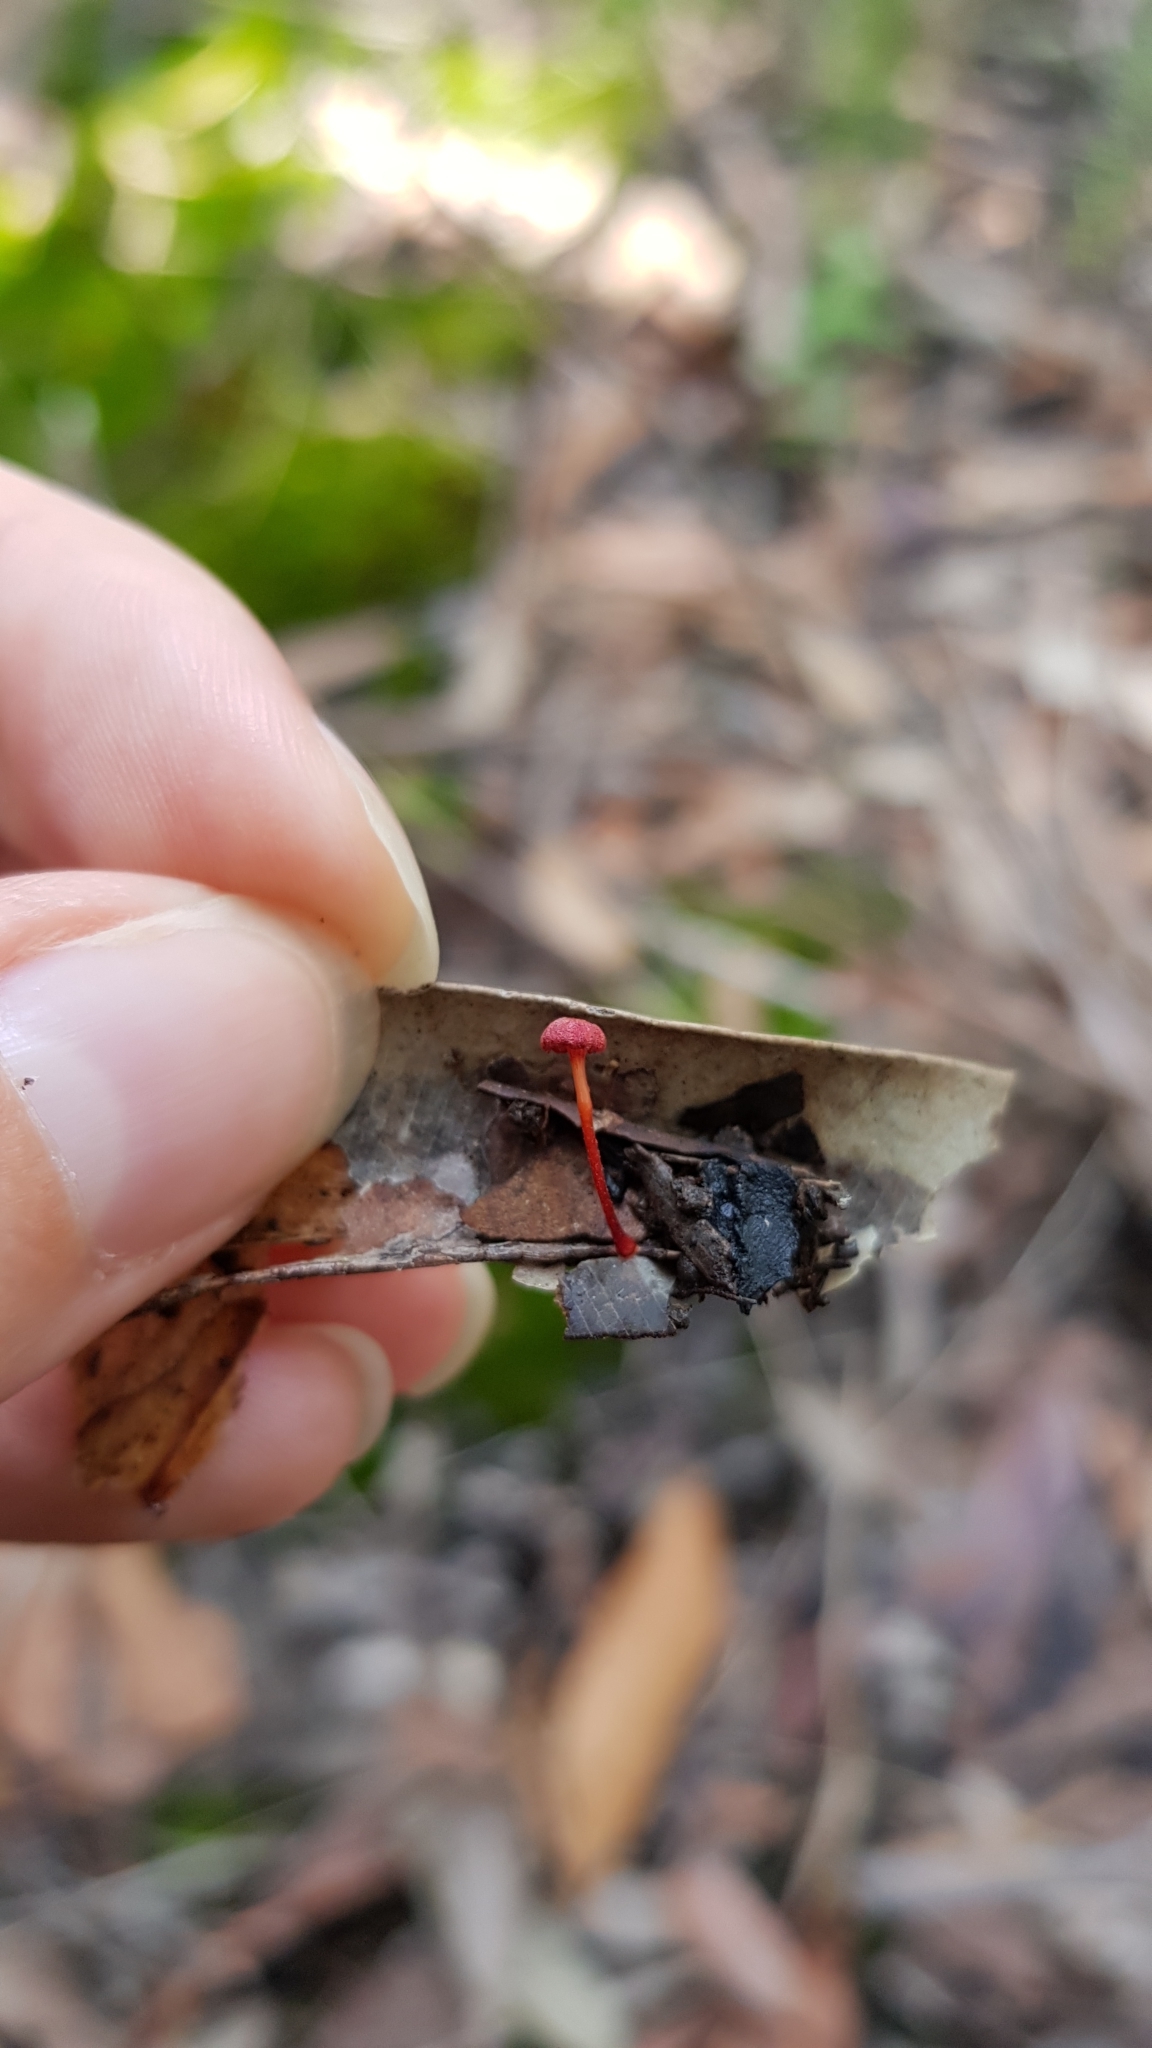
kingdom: Fungi
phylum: Basidiomycota
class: Agaricomycetes
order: Agaricales
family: Mycenaceae
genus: Cruentomycena
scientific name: Cruentomycena viscidocruenta
